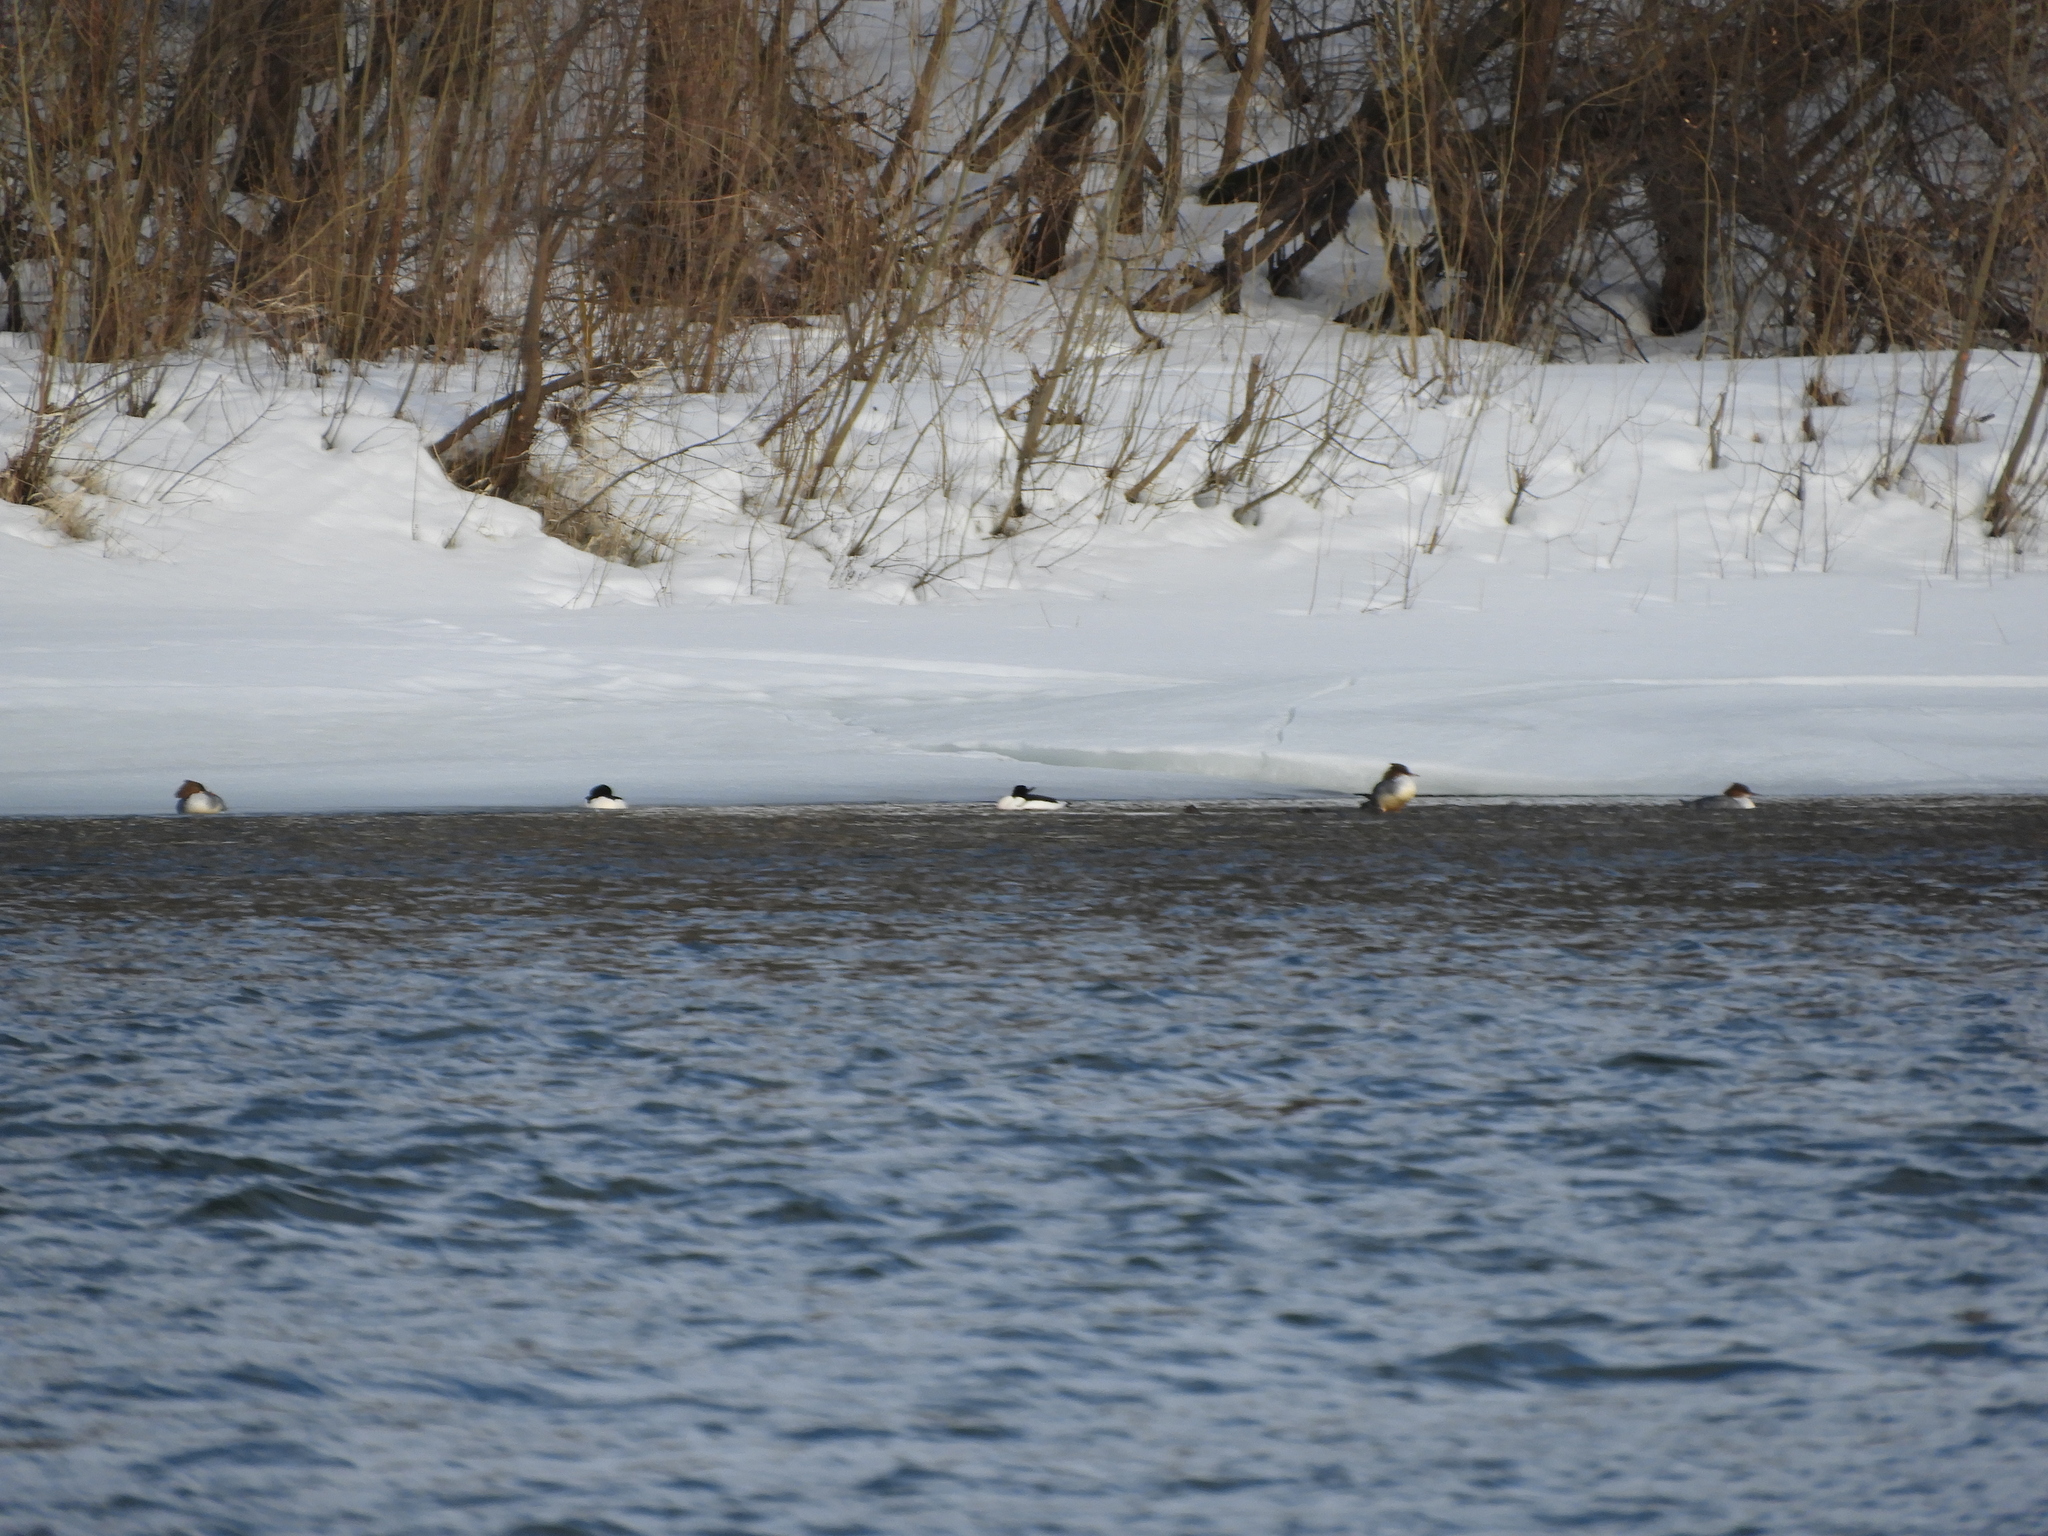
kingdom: Animalia
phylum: Chordata
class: Aves
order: Anseriformes
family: Anatidae
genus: Mergus
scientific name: Mergus merganser
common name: Common merganser
